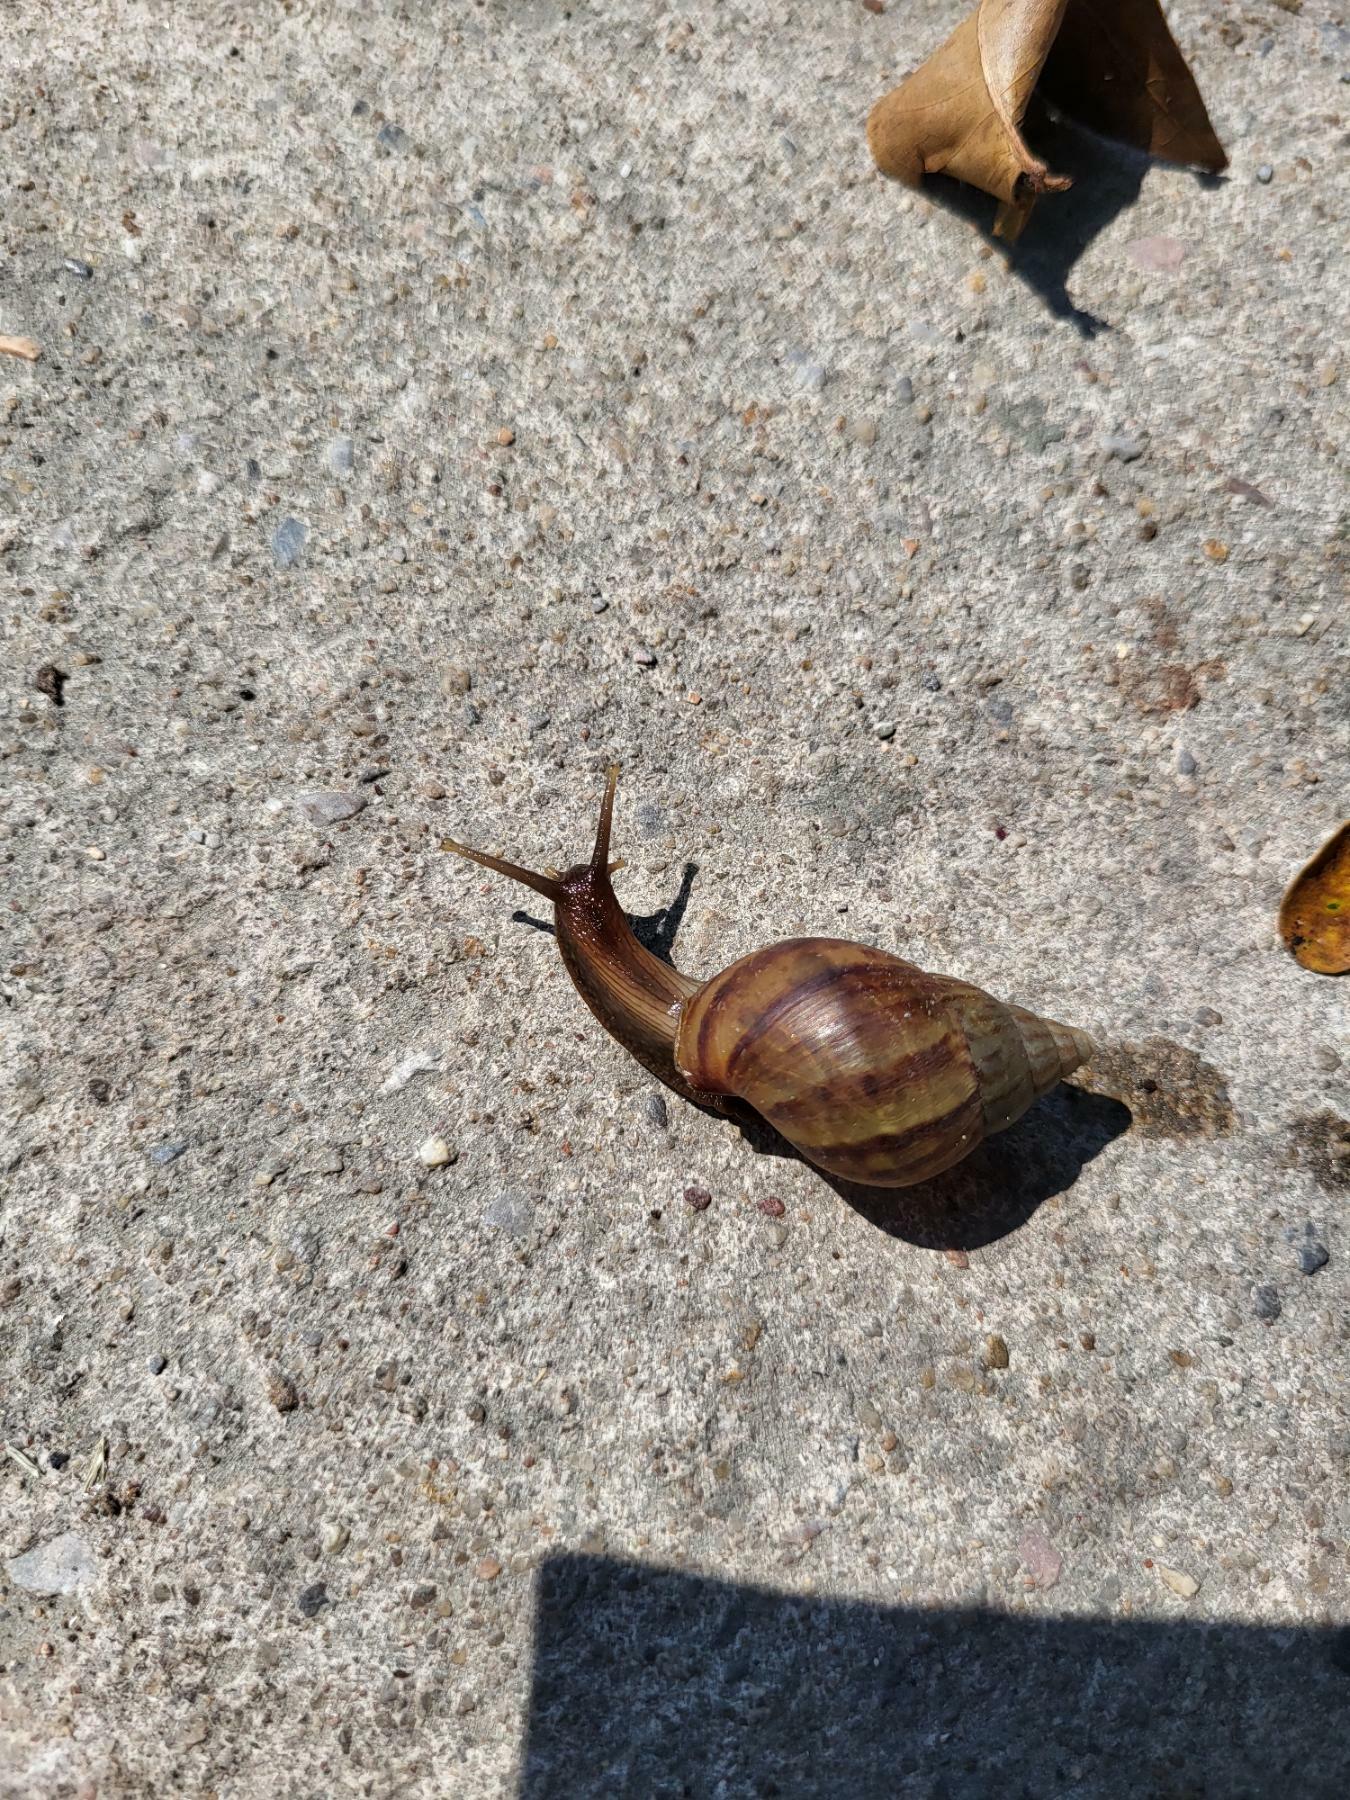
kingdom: Animalia
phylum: Mollusca
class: Gastropoda
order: Stylommatophora
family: Achatinidae
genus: Lissachatina
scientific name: Lissachatina fulica
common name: Giant african snail
